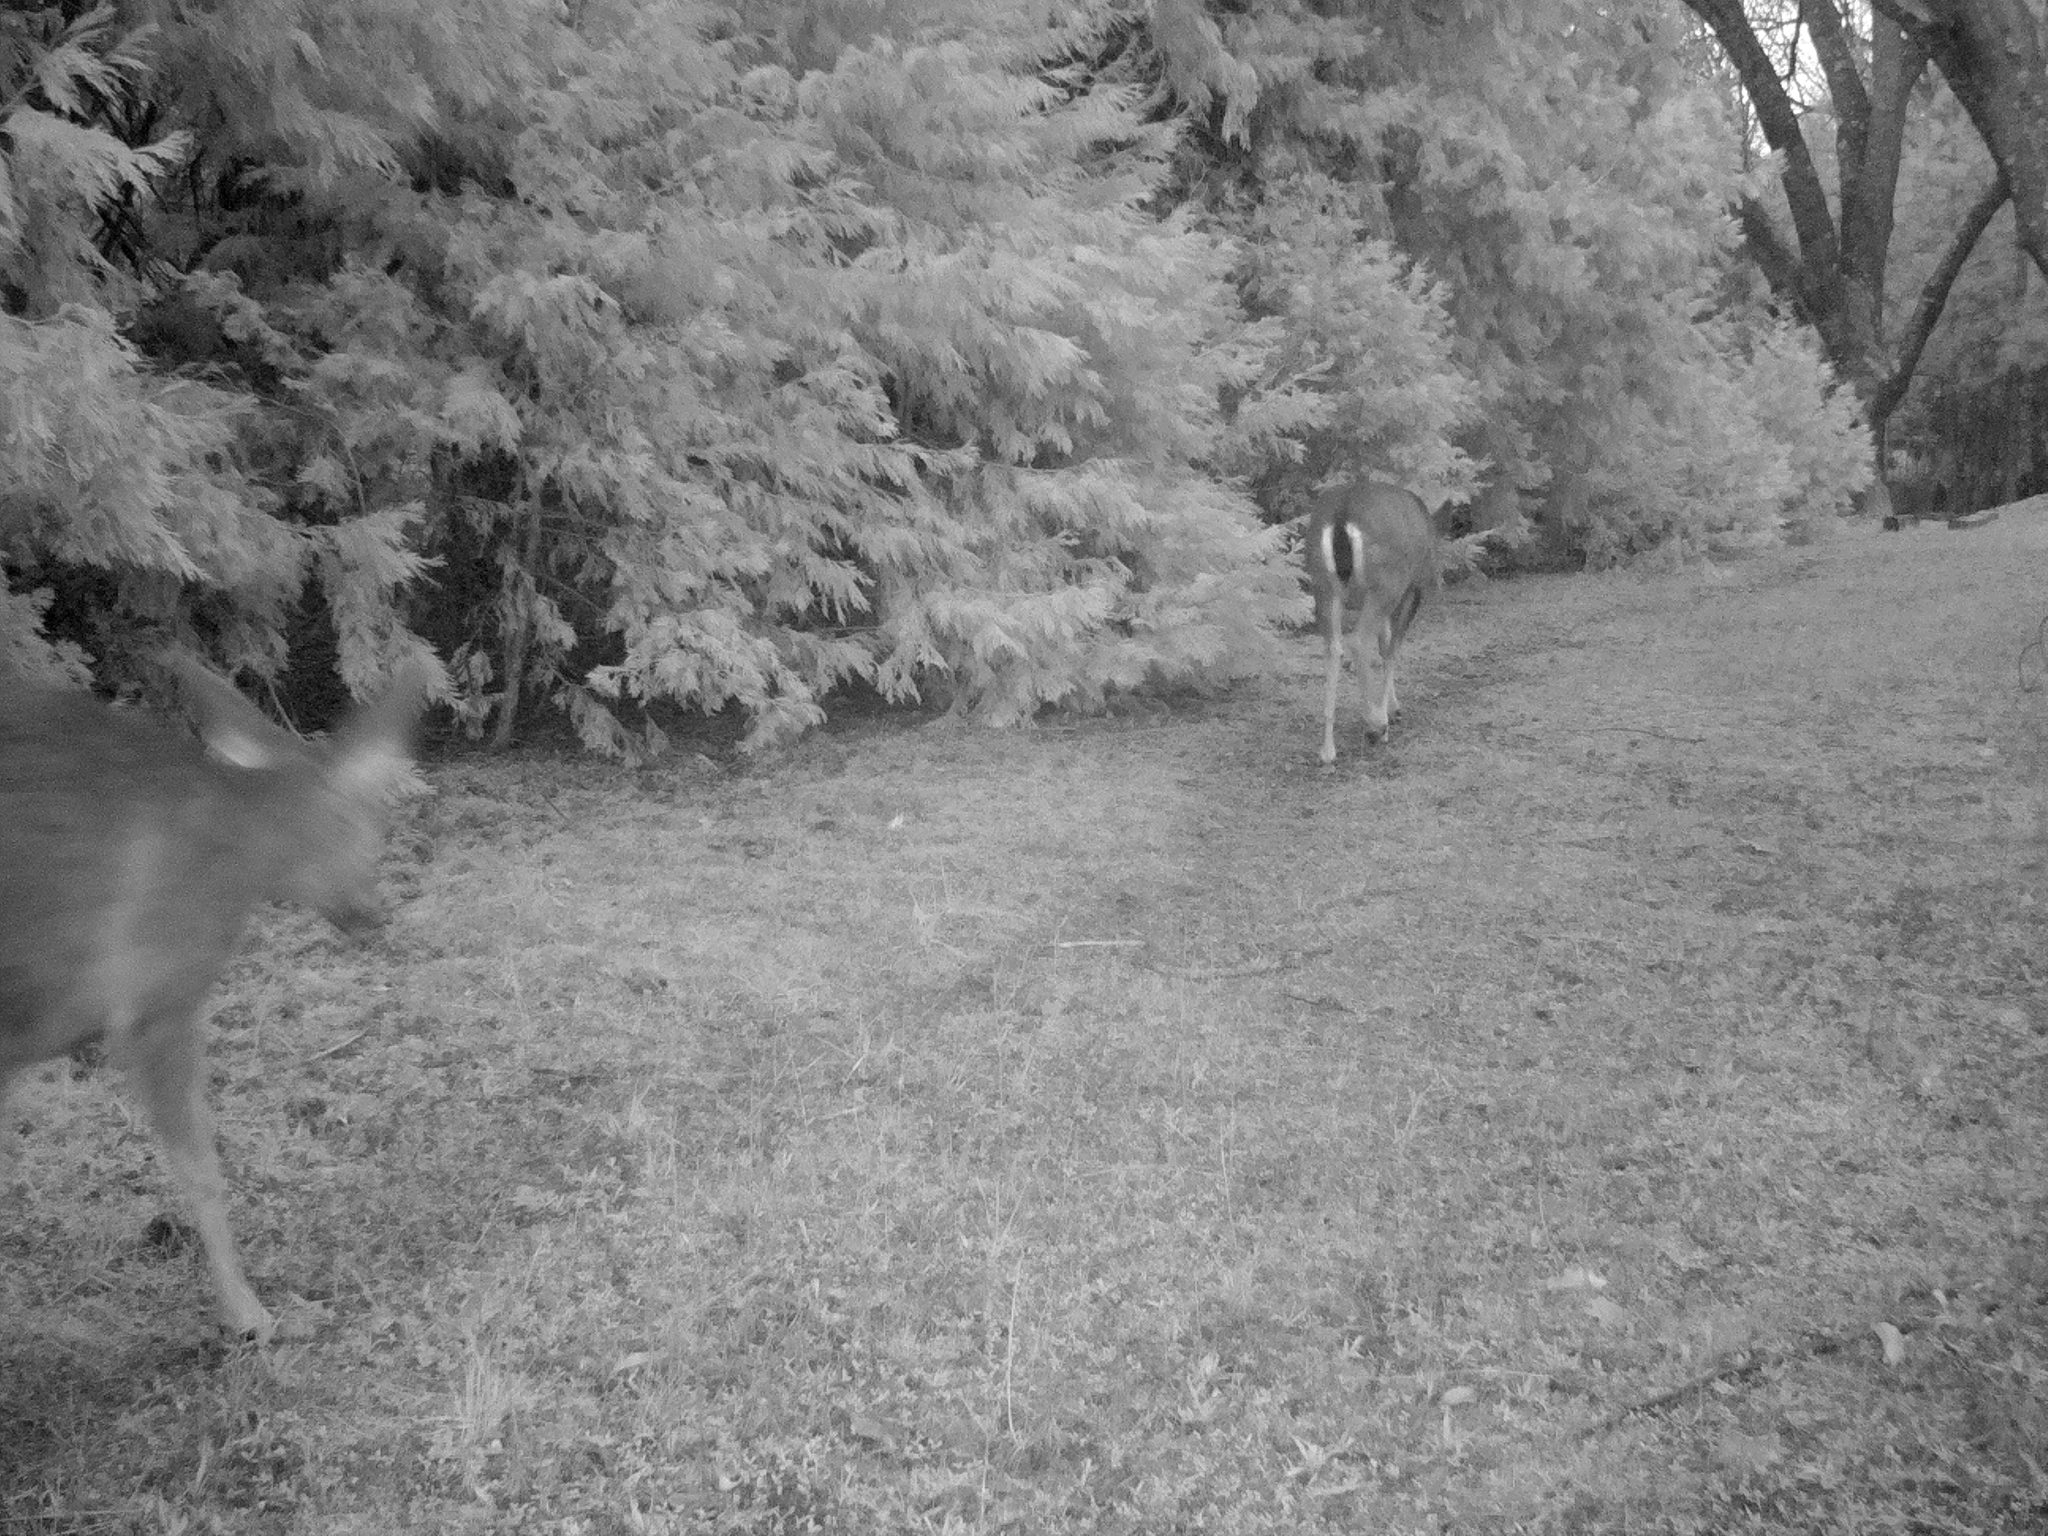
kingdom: Animalia
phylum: Chordata
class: Mammalia
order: Artiodactyla
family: Cervidae
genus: Odocoileus
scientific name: Odocoileus hemionus
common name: Mule deer
